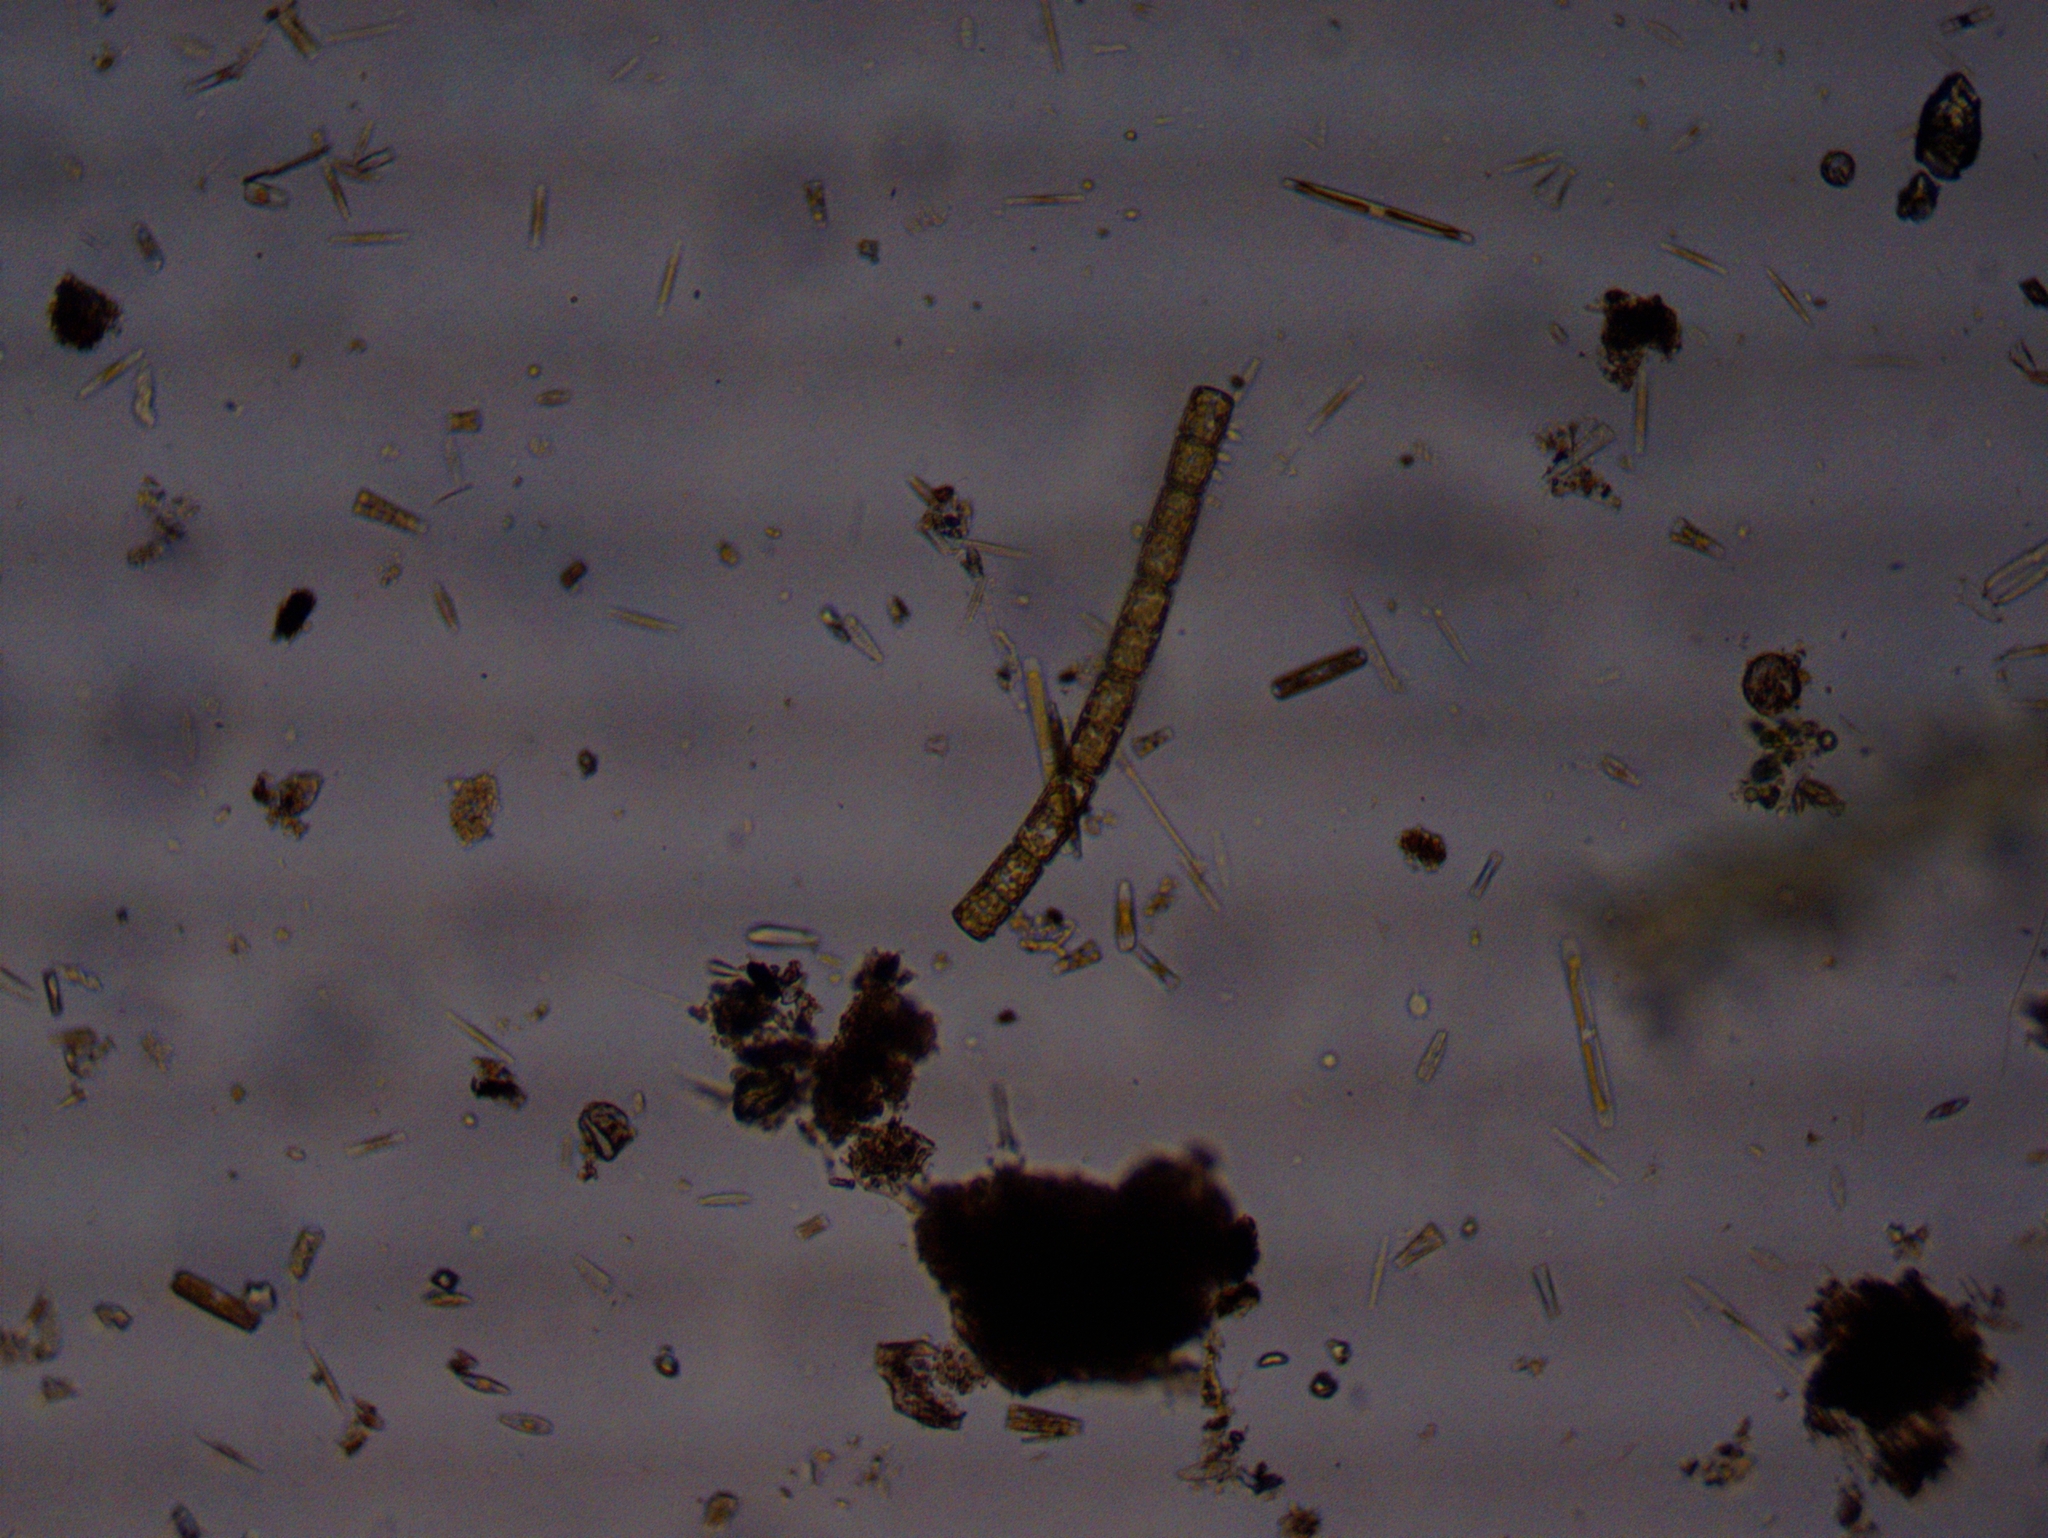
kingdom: Chromista
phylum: Ochrophyta
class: Bacillariophyceae
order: Melosirales
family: Melosiraceae
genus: Melosira
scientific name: Melosira varians
